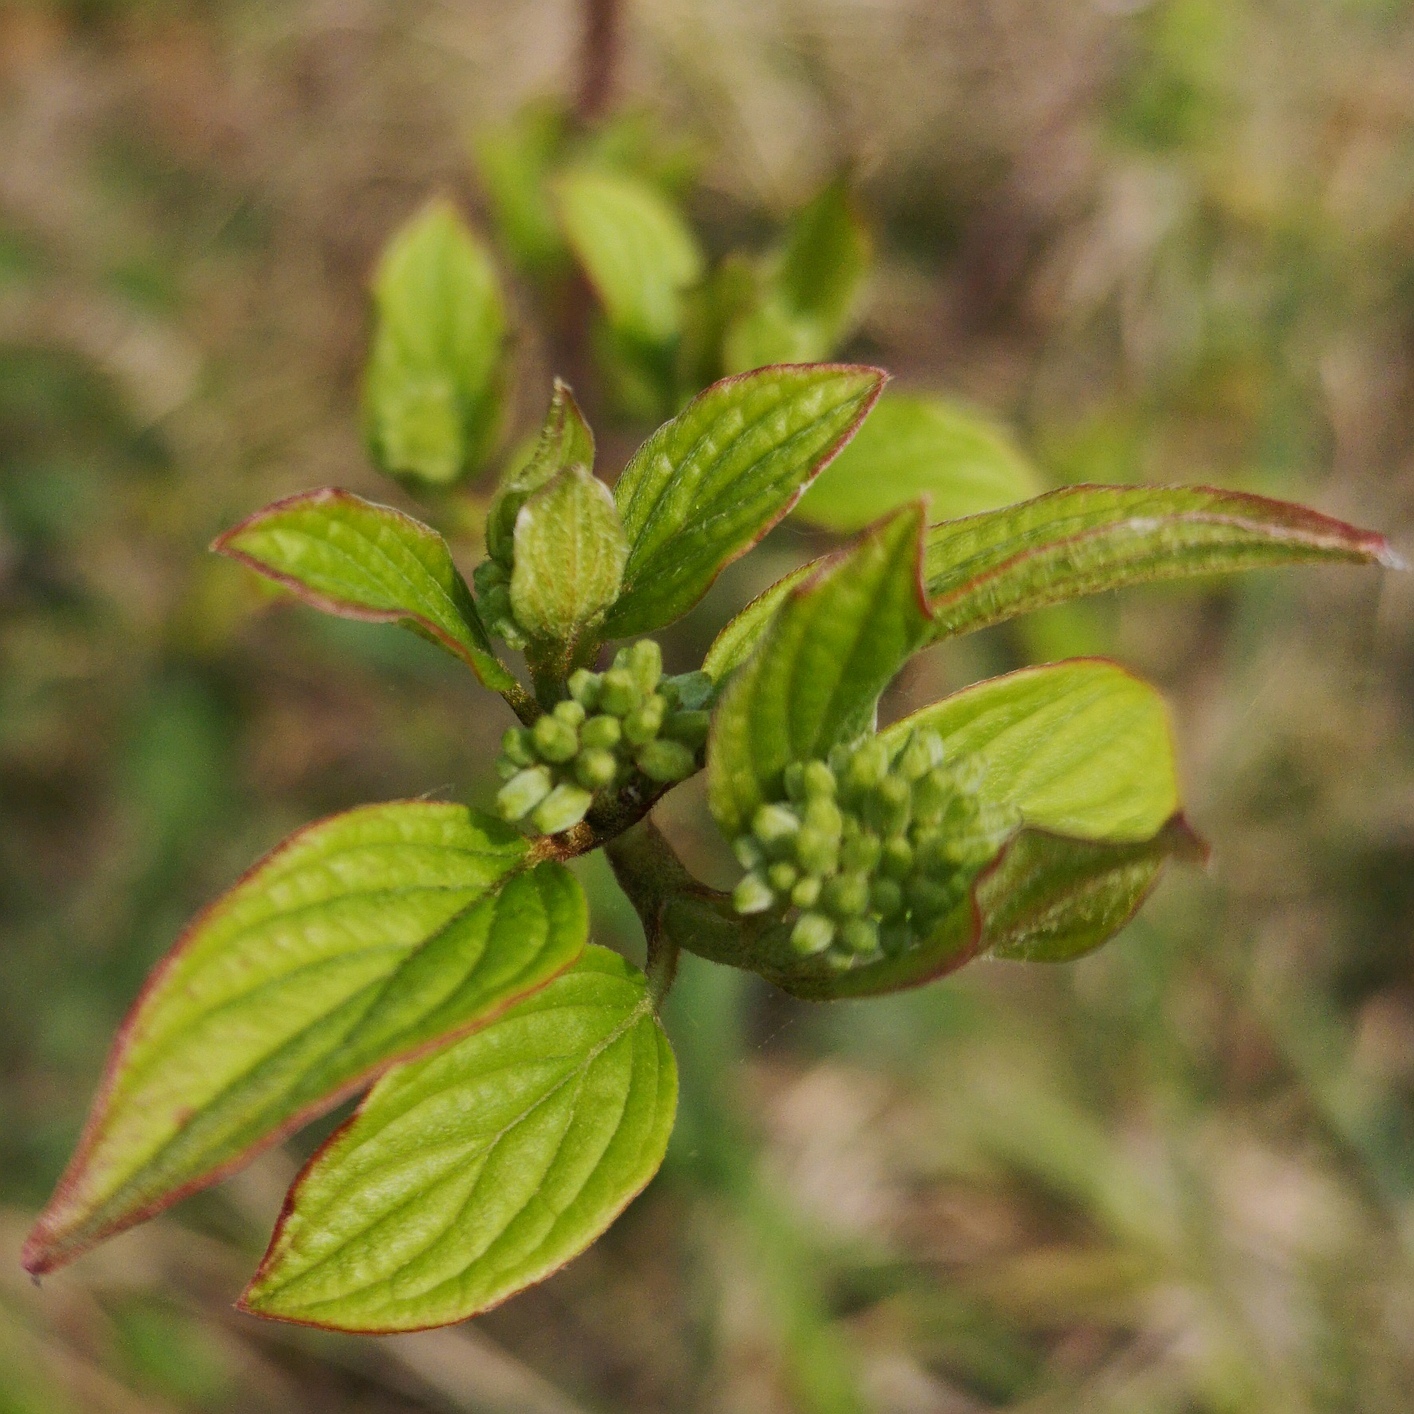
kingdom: Plantae
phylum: Tracheophyta
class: Magnoliopsida
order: Cornales
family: Cornaceae
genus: Cornus
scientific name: Cornus sanguinea
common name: Dogwood
